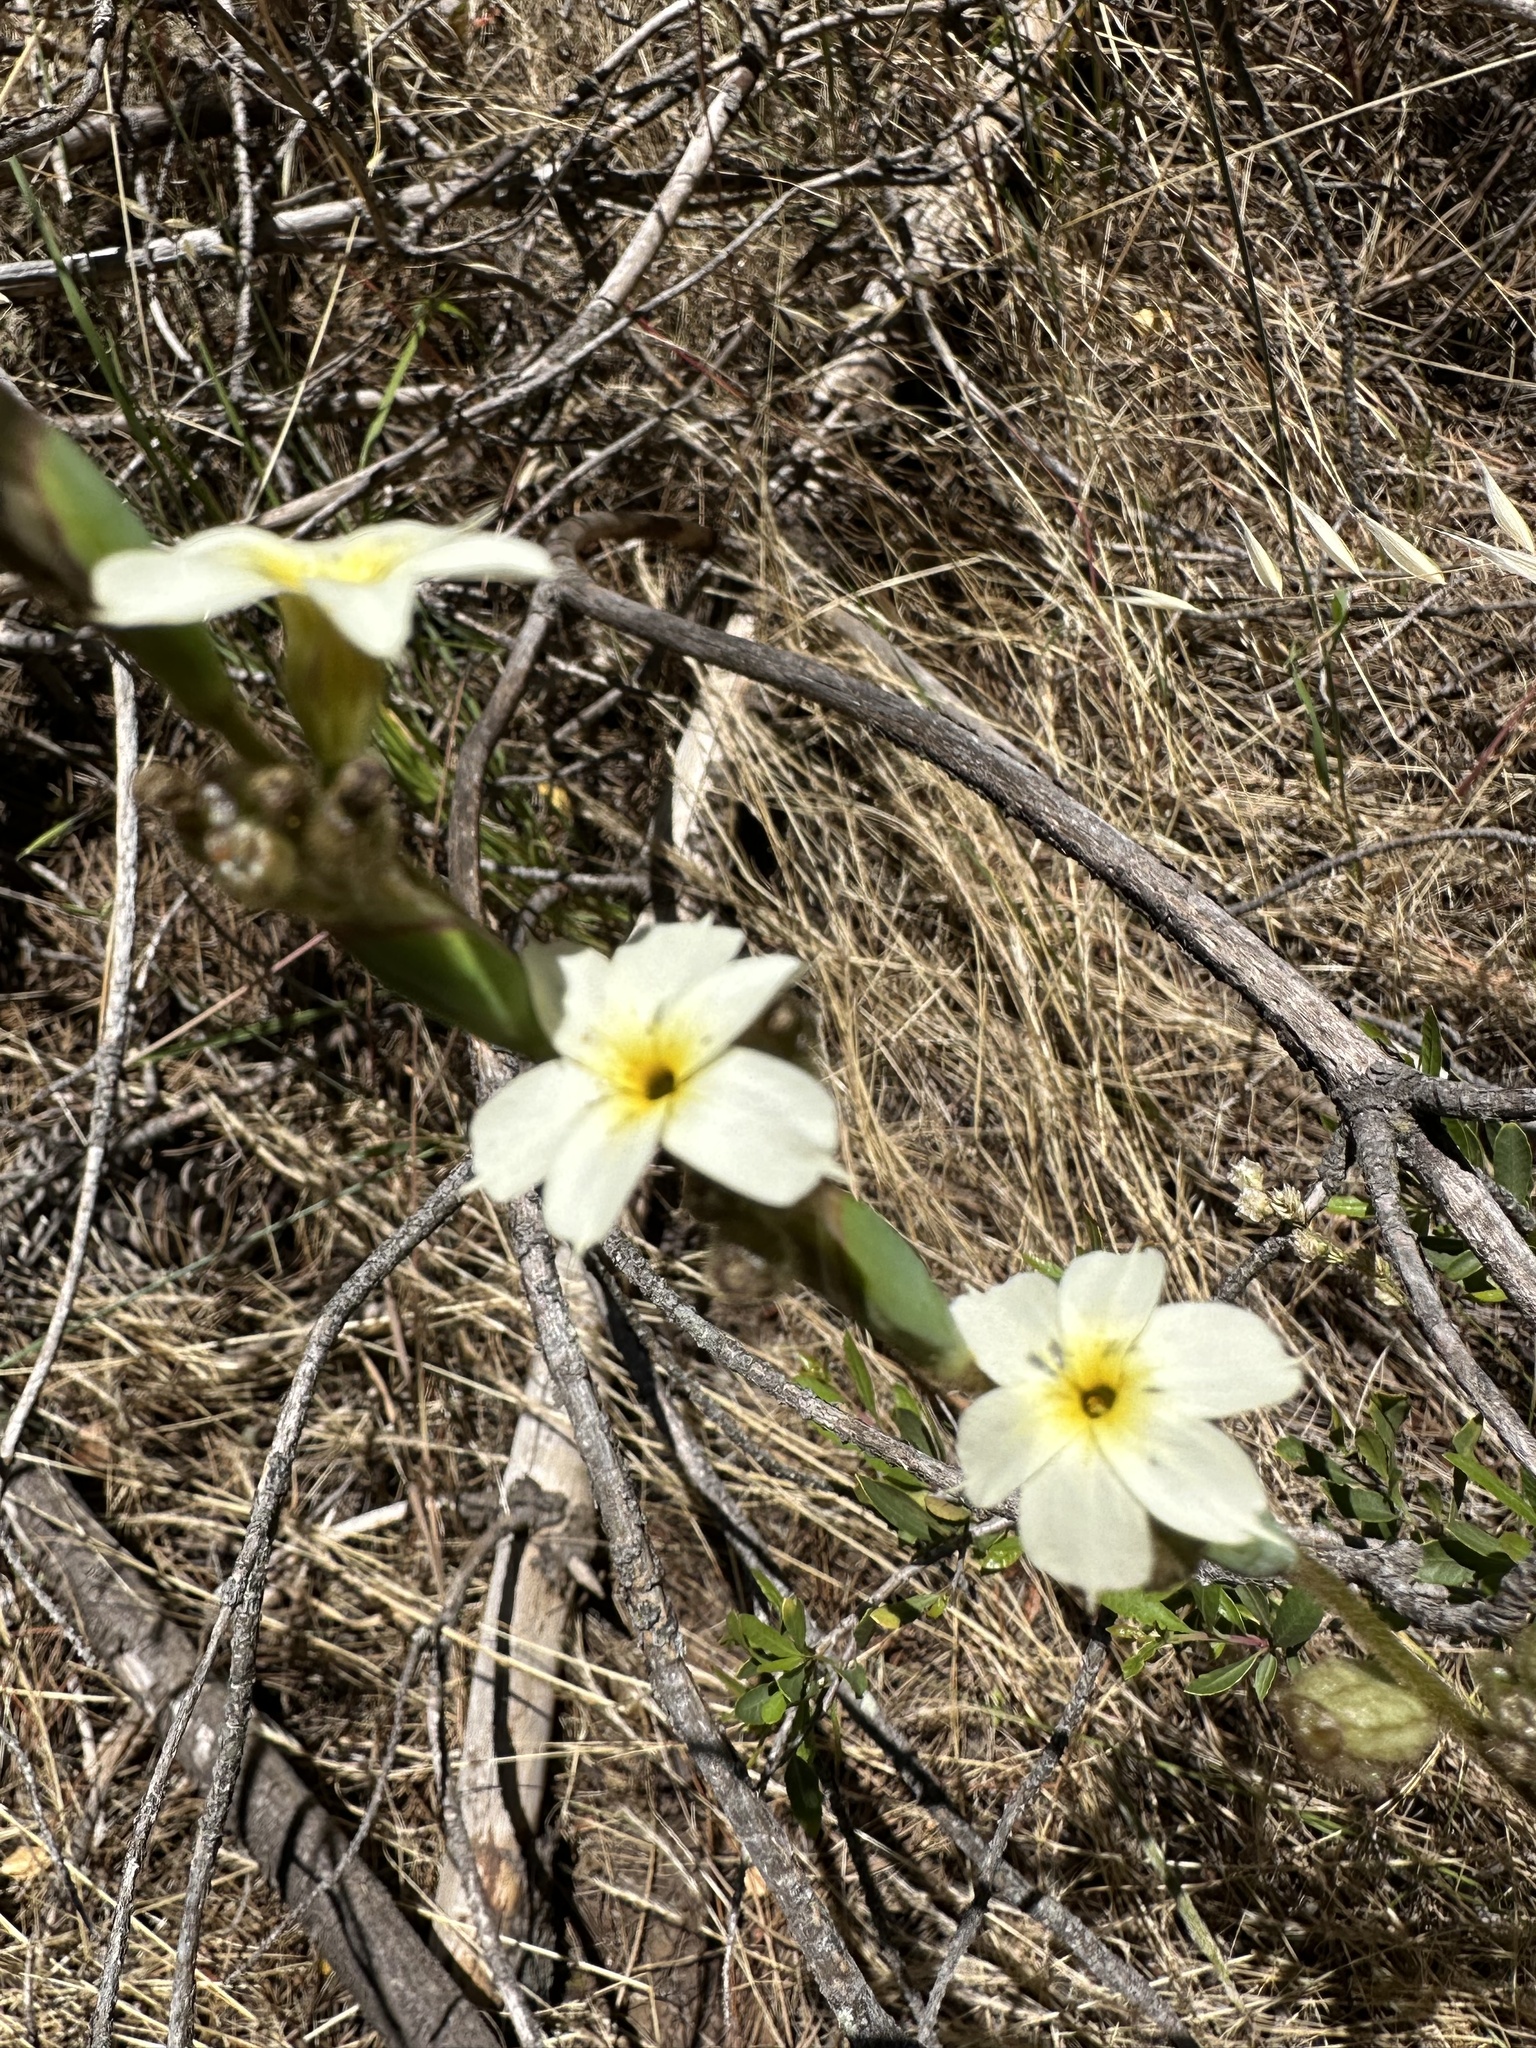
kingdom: Plantae
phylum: Tracheophyta
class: Liliopsida
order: Asparagales
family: Iridaceae
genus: Sisyrinchium
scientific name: Sisyrinchium cuspidatum
